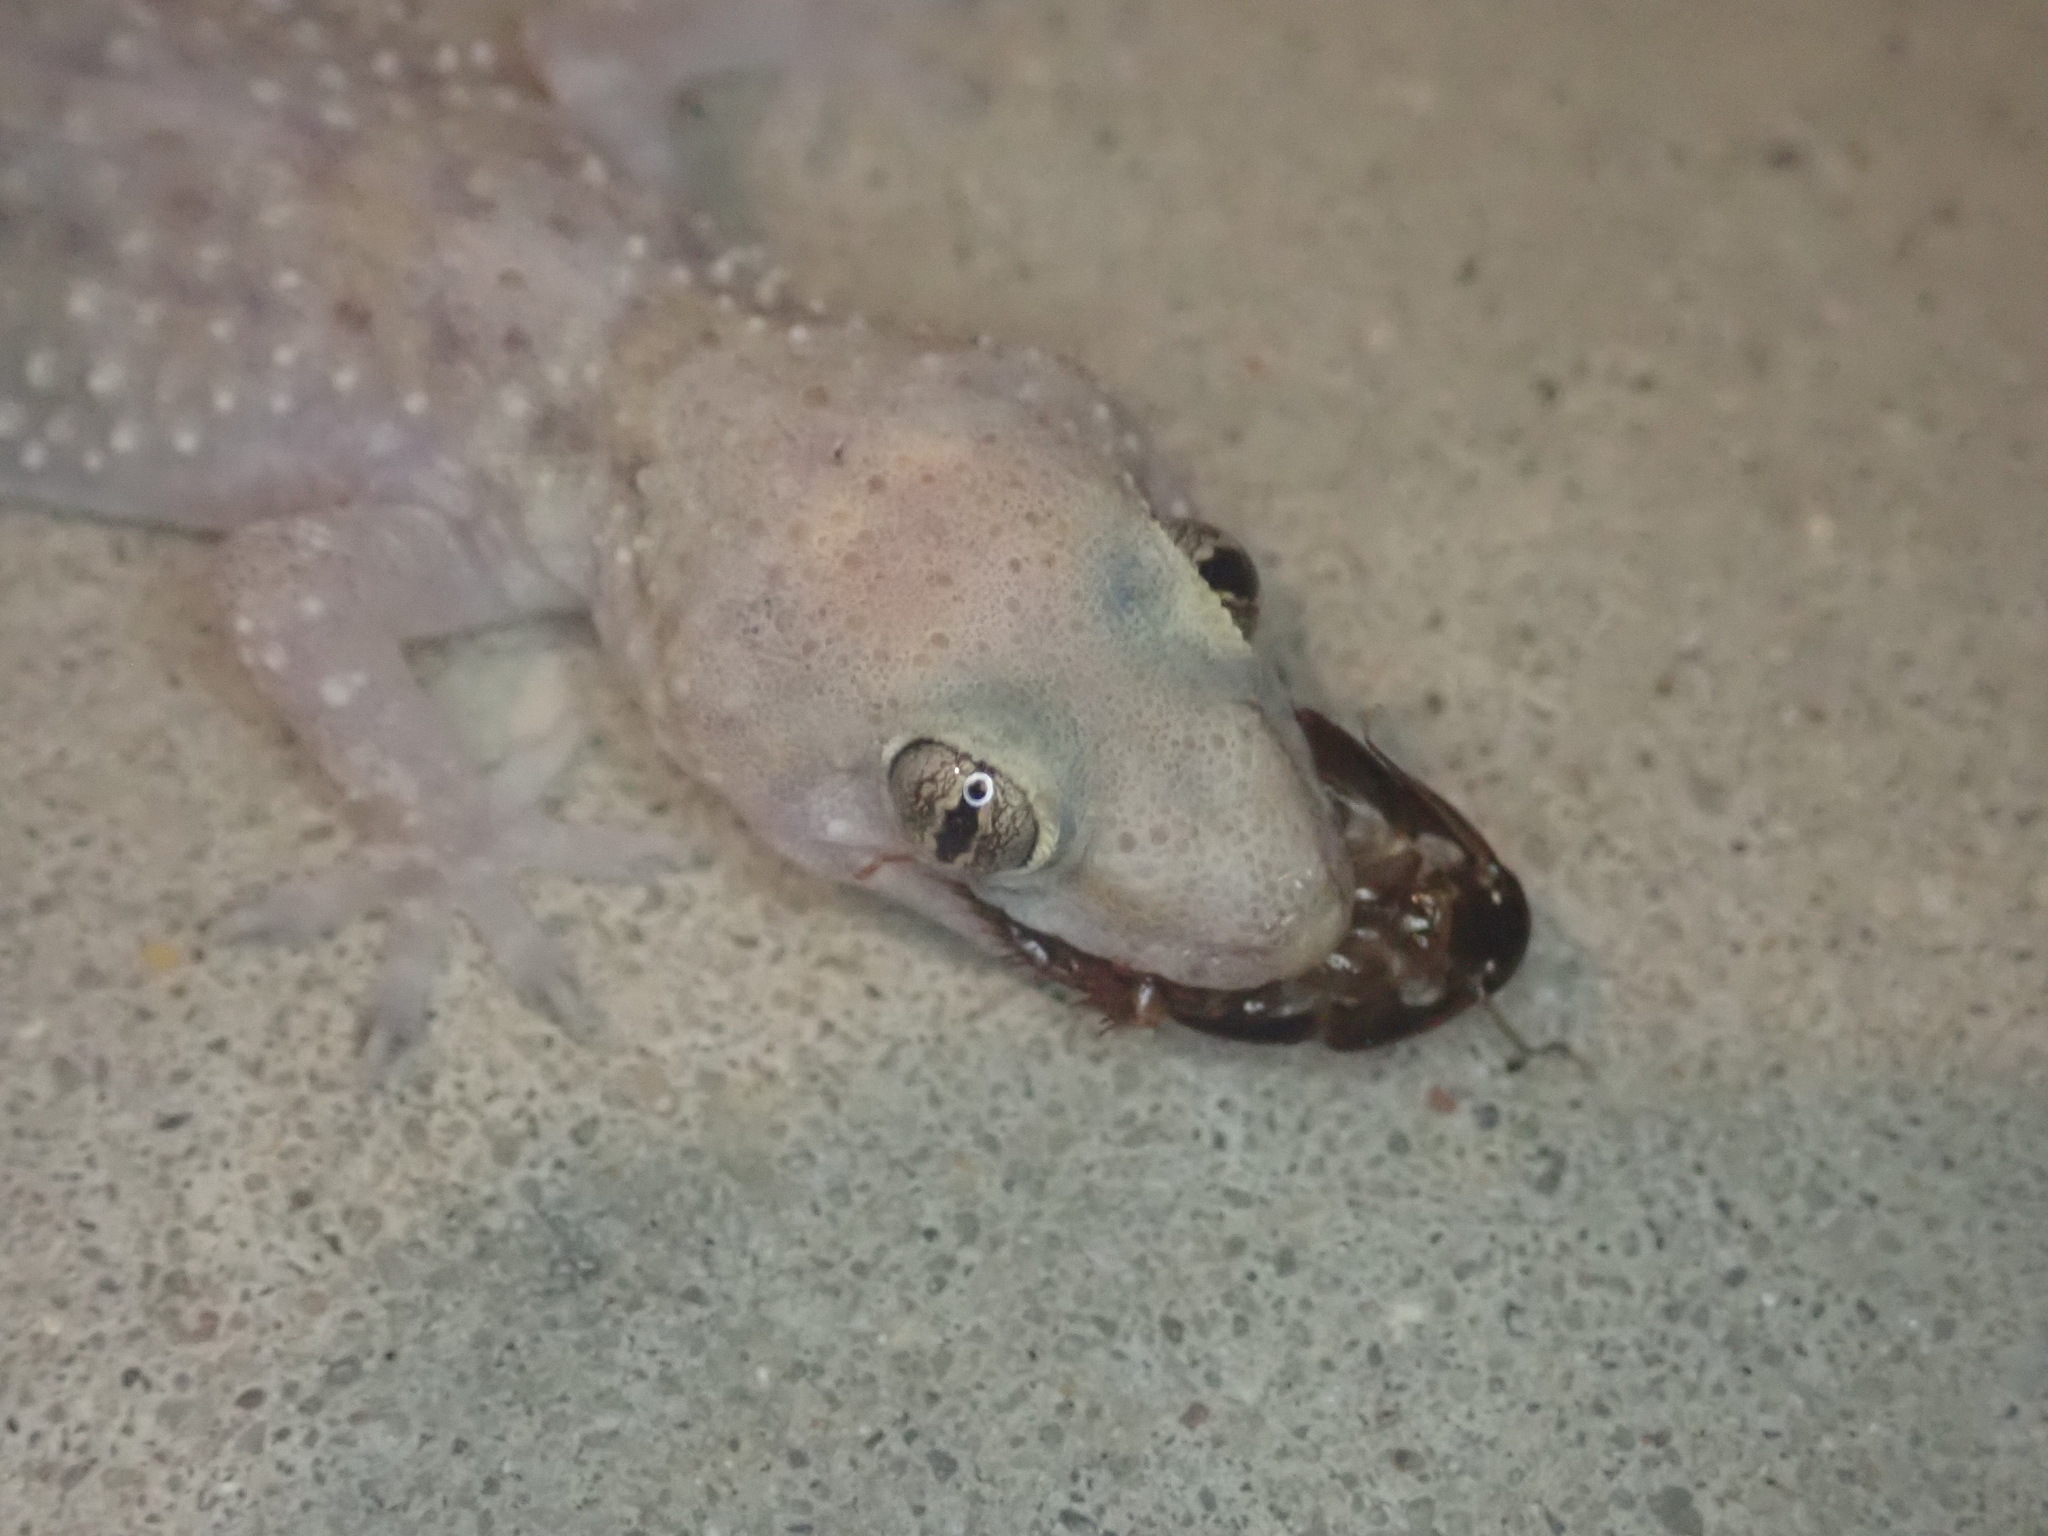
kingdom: Animalia
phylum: Chordata
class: Squamata
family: Gekkonidae
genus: Hemidactylus
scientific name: Hemidactylus turcicus
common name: Turkish gecko
